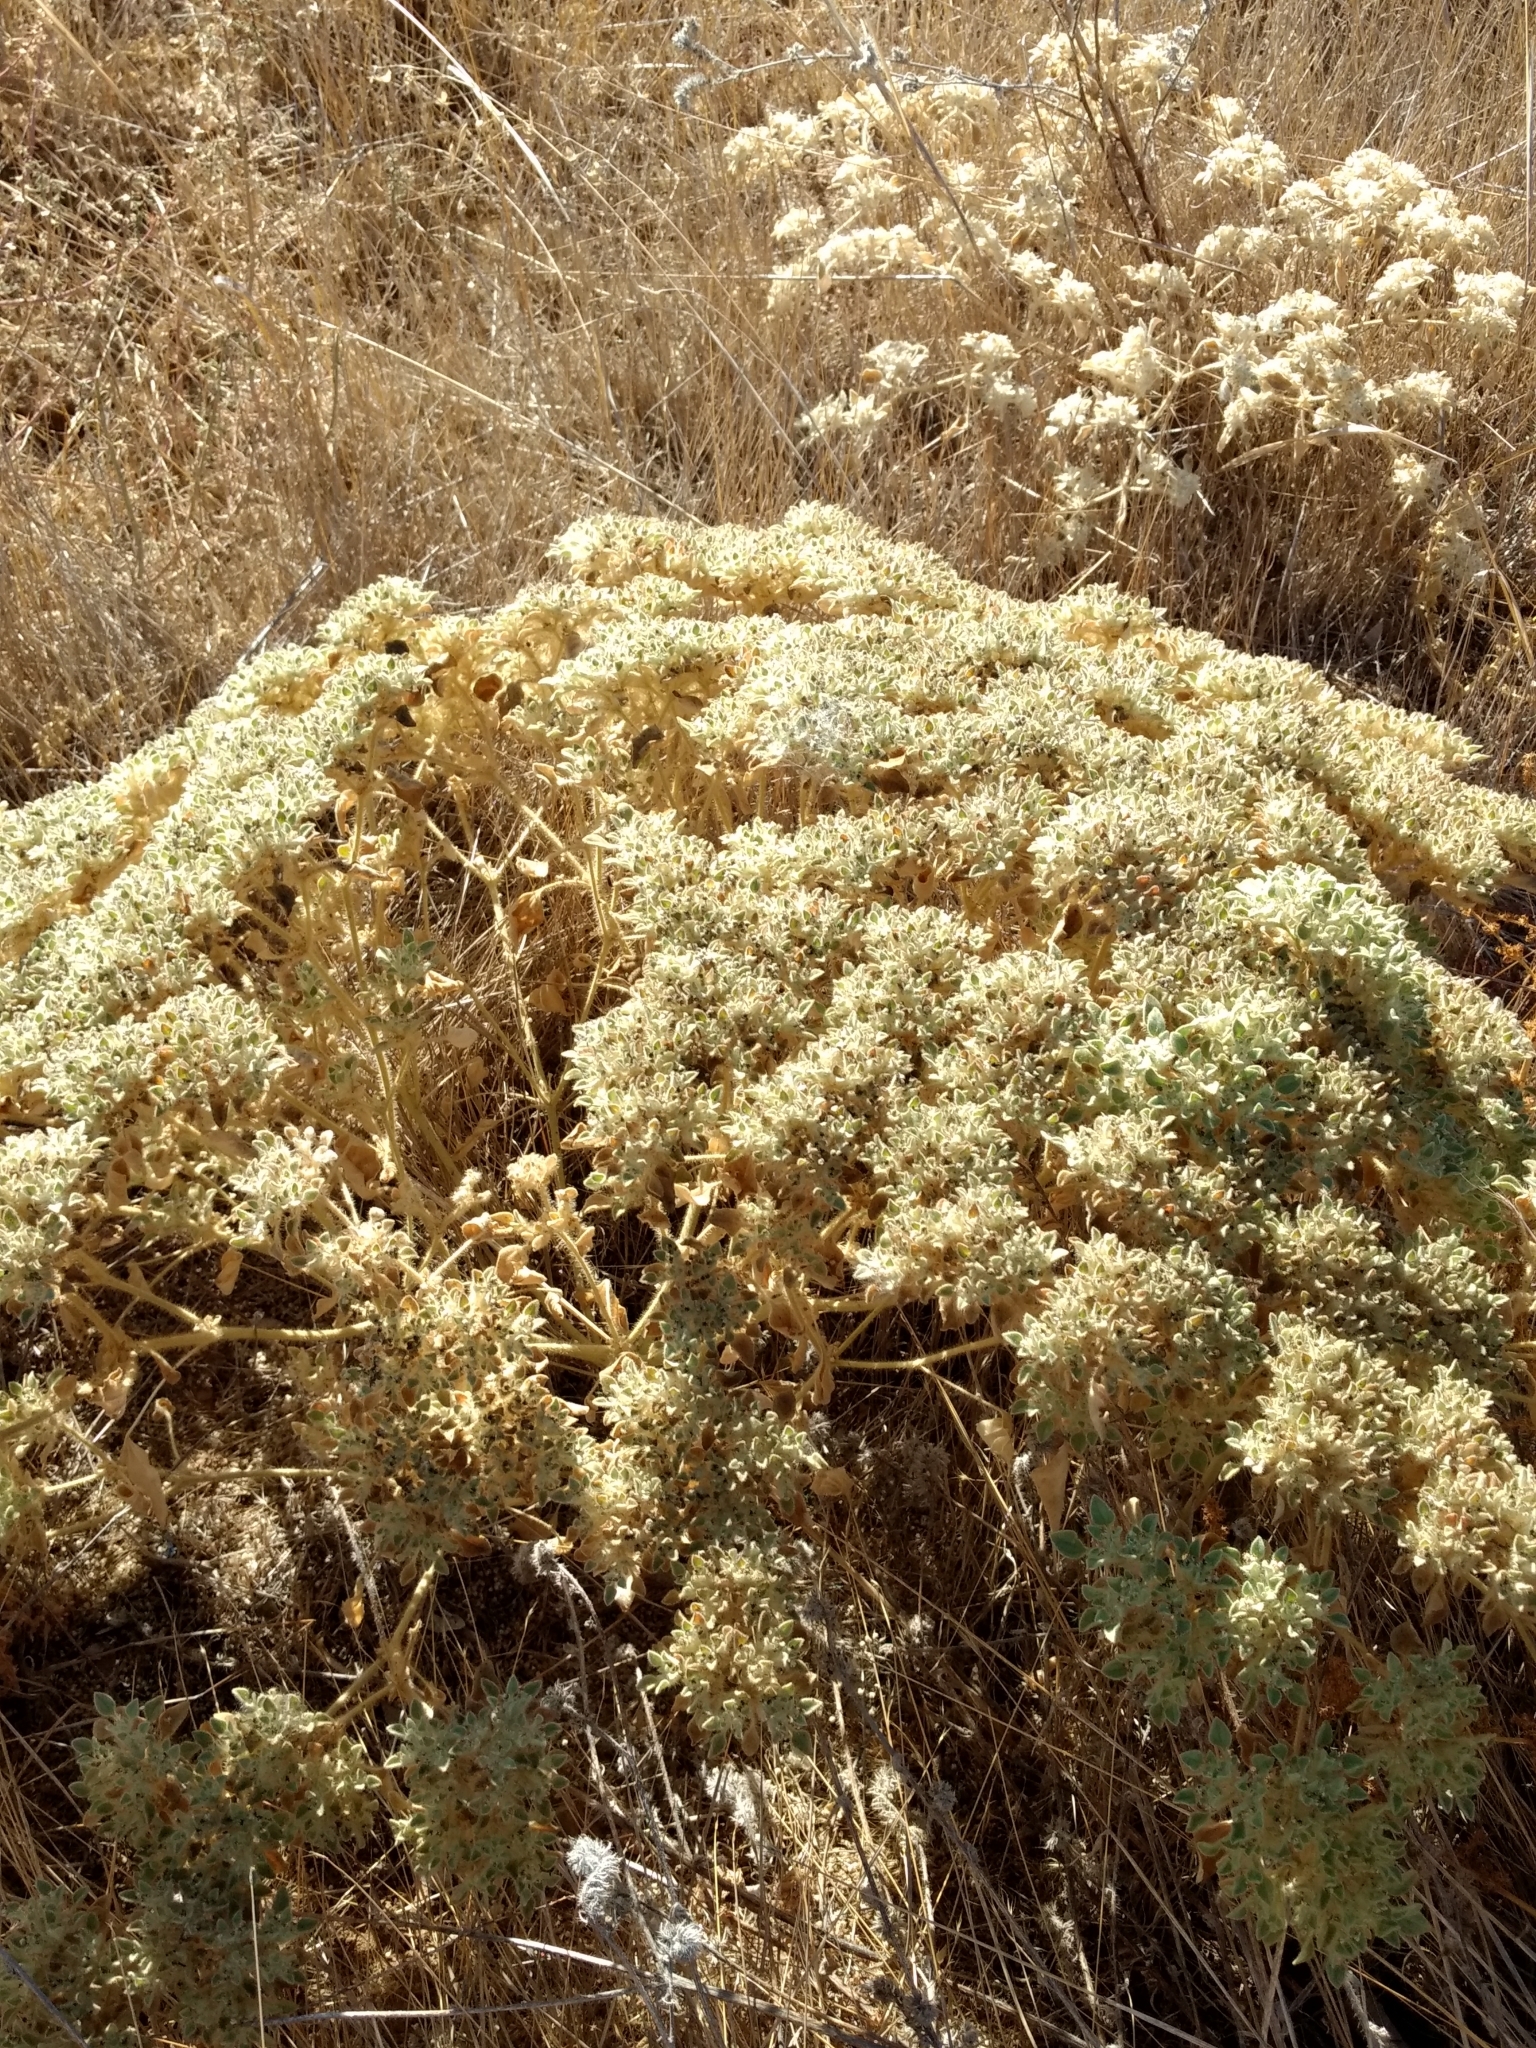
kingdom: Plantae
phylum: Tracheophyta
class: Magnoliopsida
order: Malpighiales
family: Euphorbiaceae
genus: Croton
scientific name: Croton setiger
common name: Dove weed
